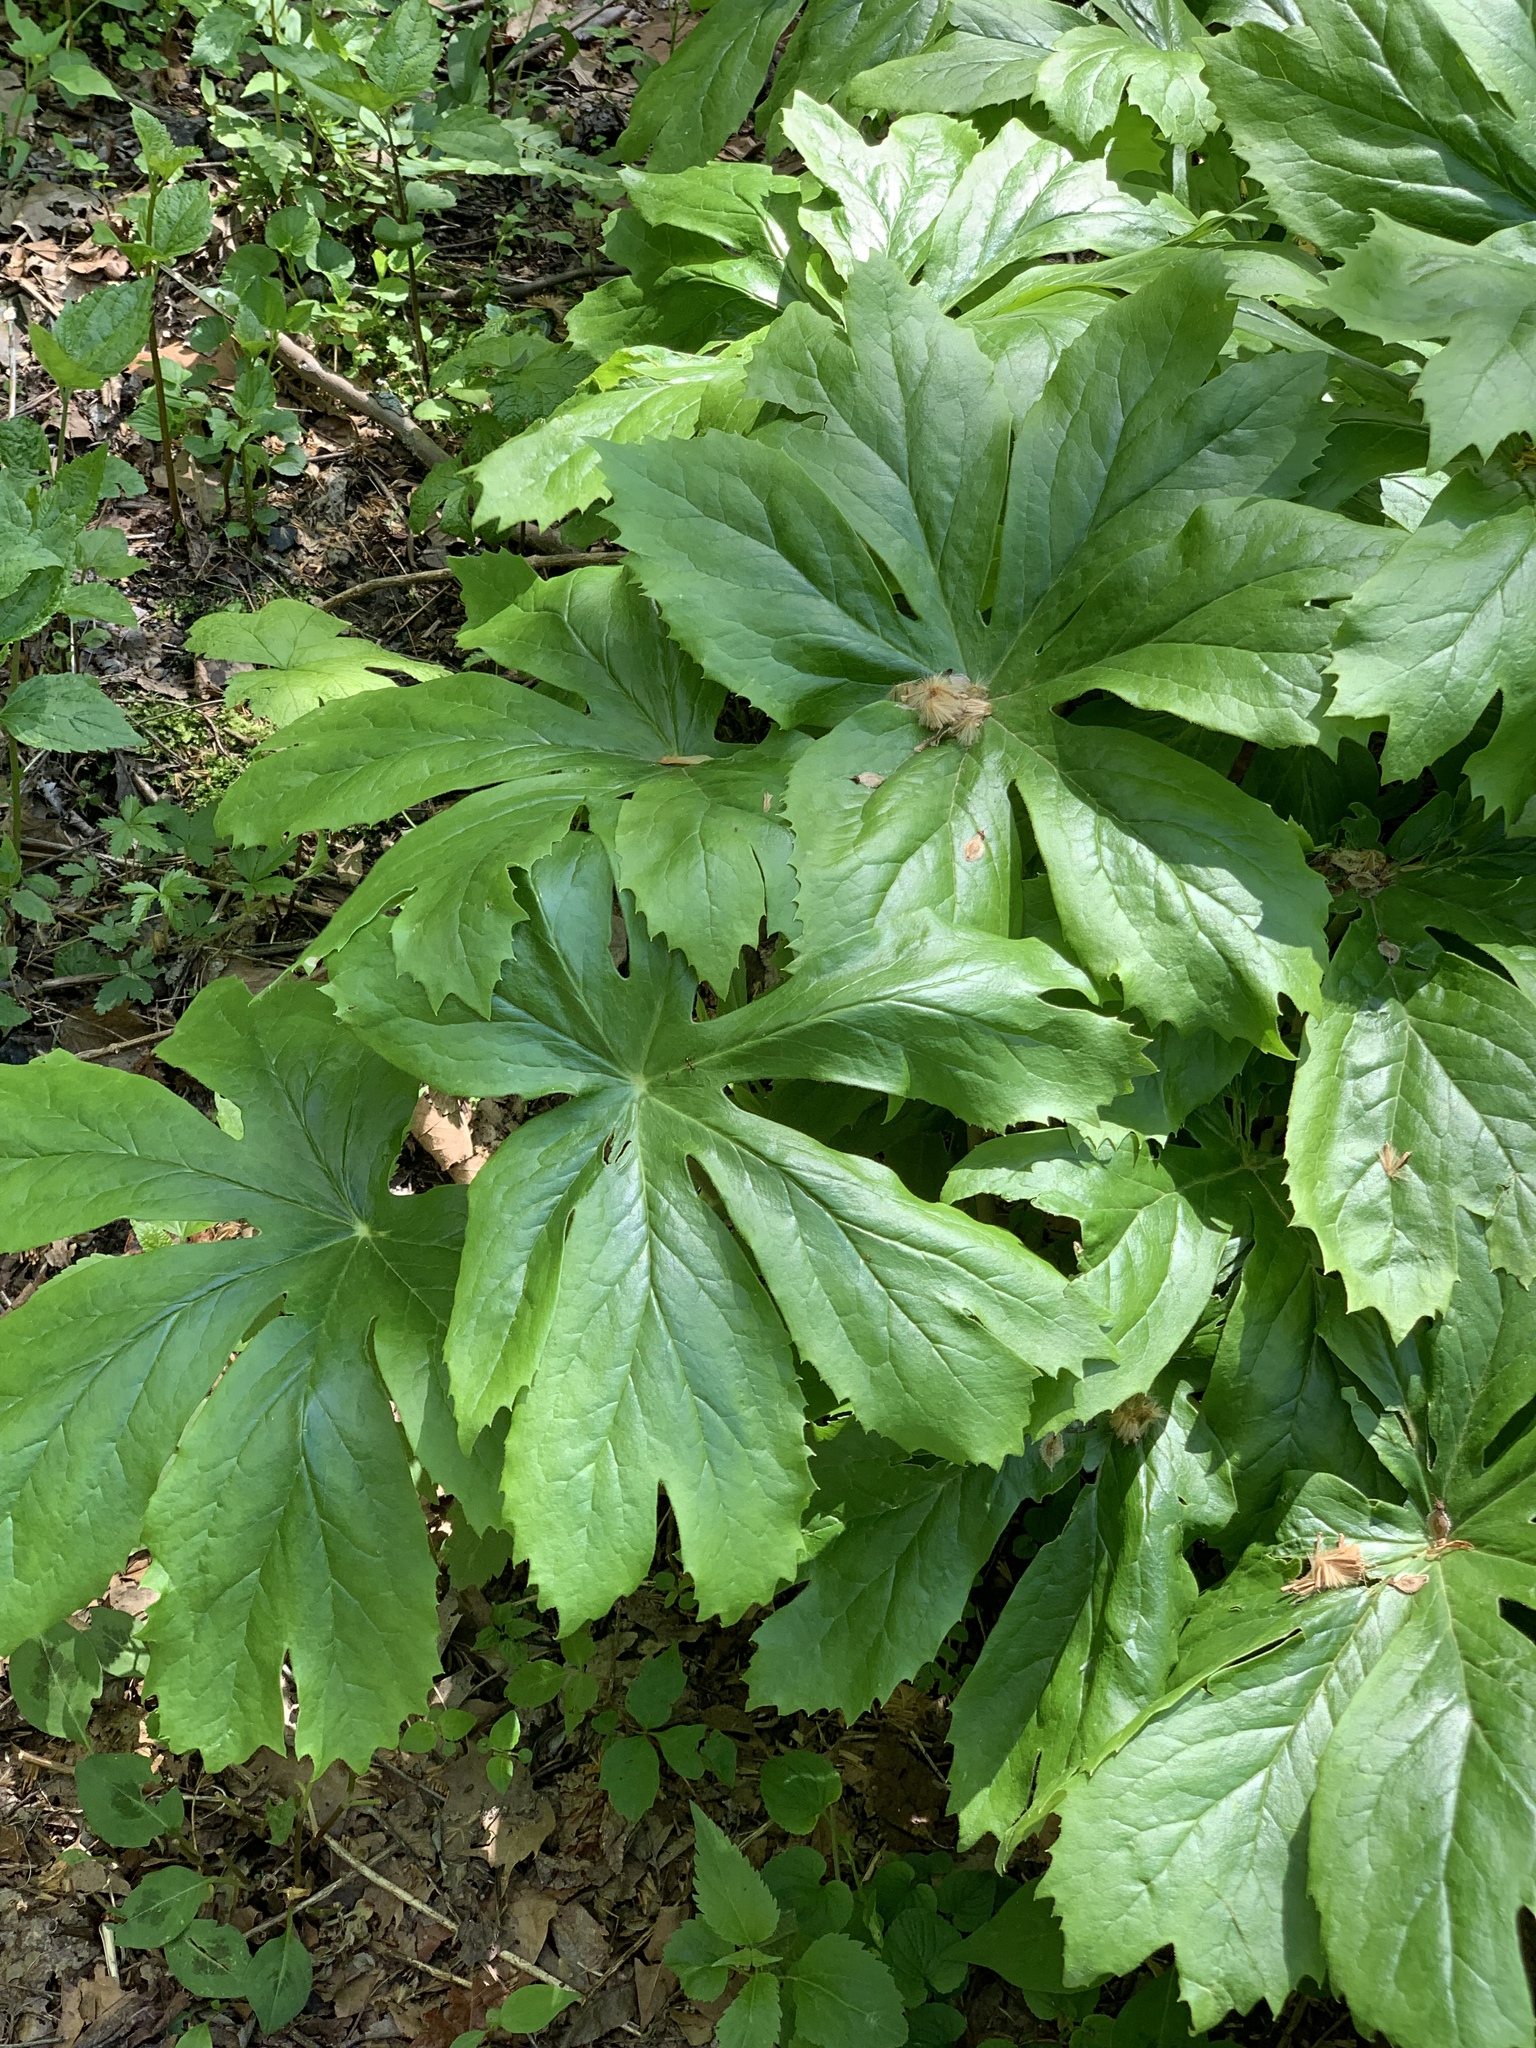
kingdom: Plantae
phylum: Tracheophyta
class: Magnoliopsida
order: Ranunculales
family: Berberidaceae
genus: Podophyllum
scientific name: Podophyllum peltatum
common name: Wild mandrake
